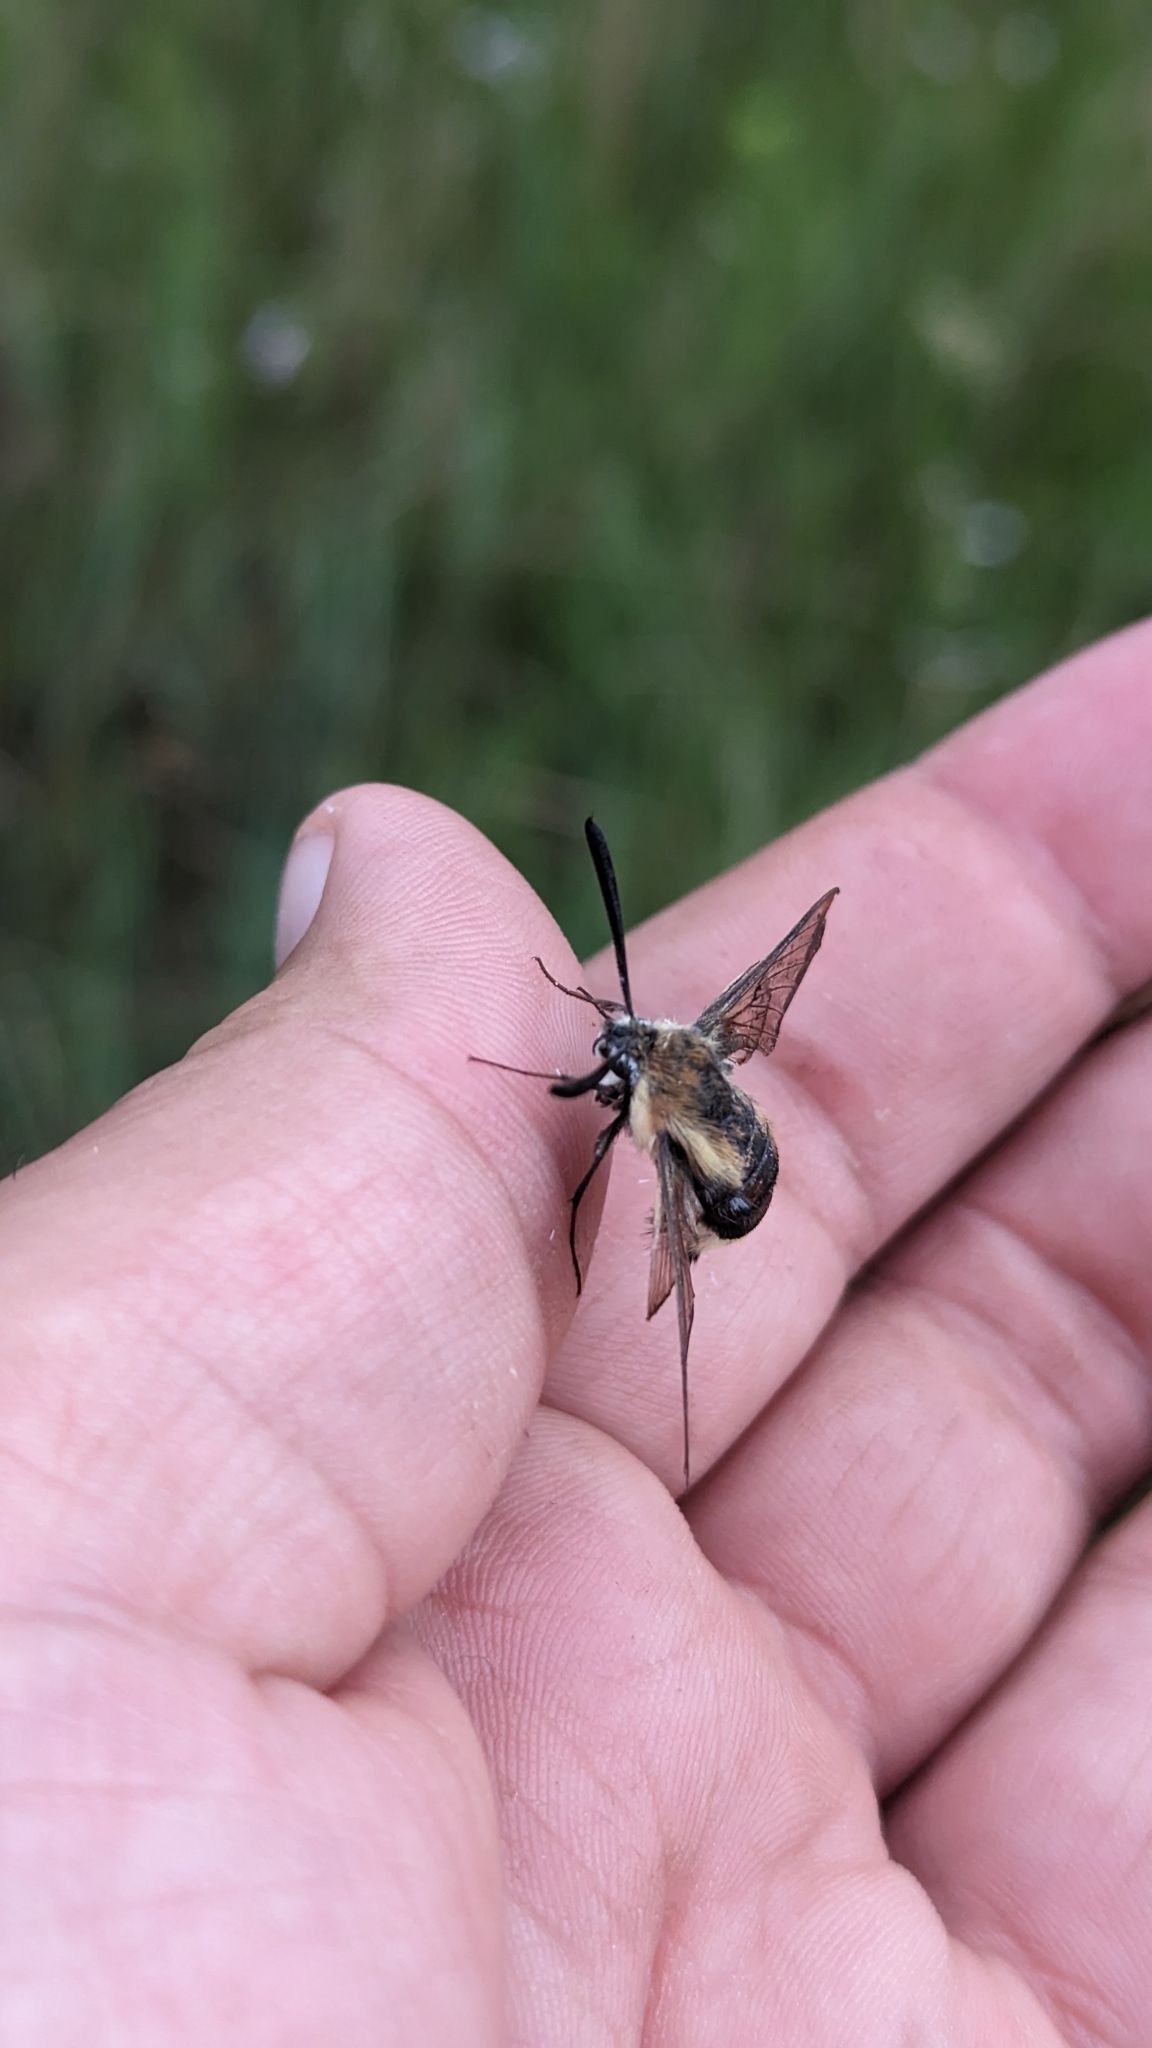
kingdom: Animalia
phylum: Arthropoda
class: Insecta
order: Lepidoptera
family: Sphingidae
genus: Hemaris
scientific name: Hemaris diffinis
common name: Bumblebee moth
